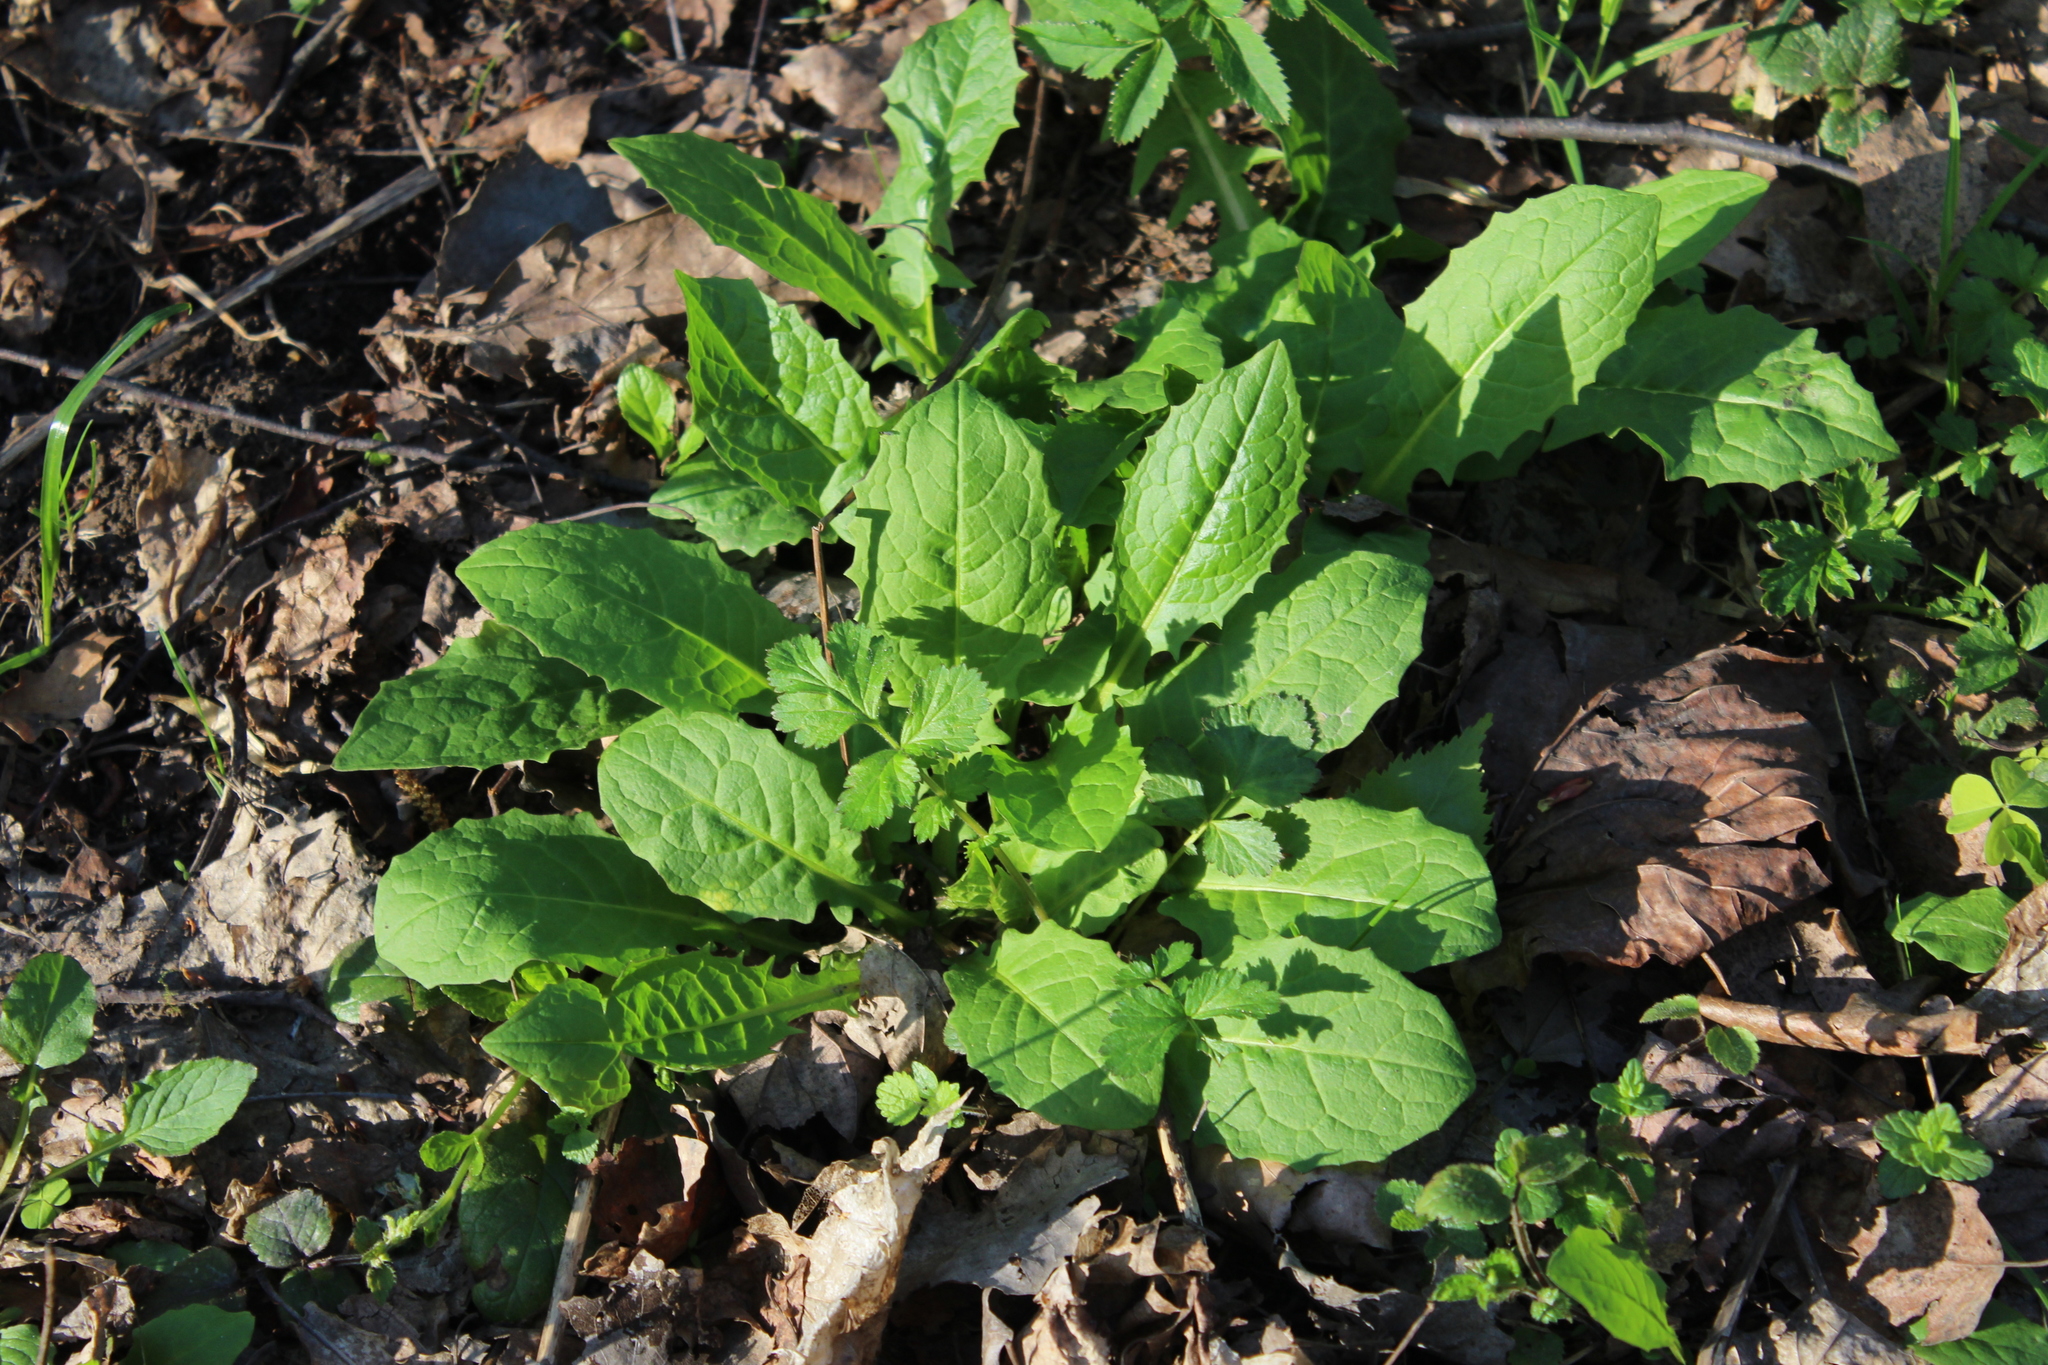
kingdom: Plantae
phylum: Tracheophyta
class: Magnoliopsida
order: Asterales
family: Asteraceae
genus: Crepis
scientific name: Crepis paludosa
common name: Marsh hawk's-beard
